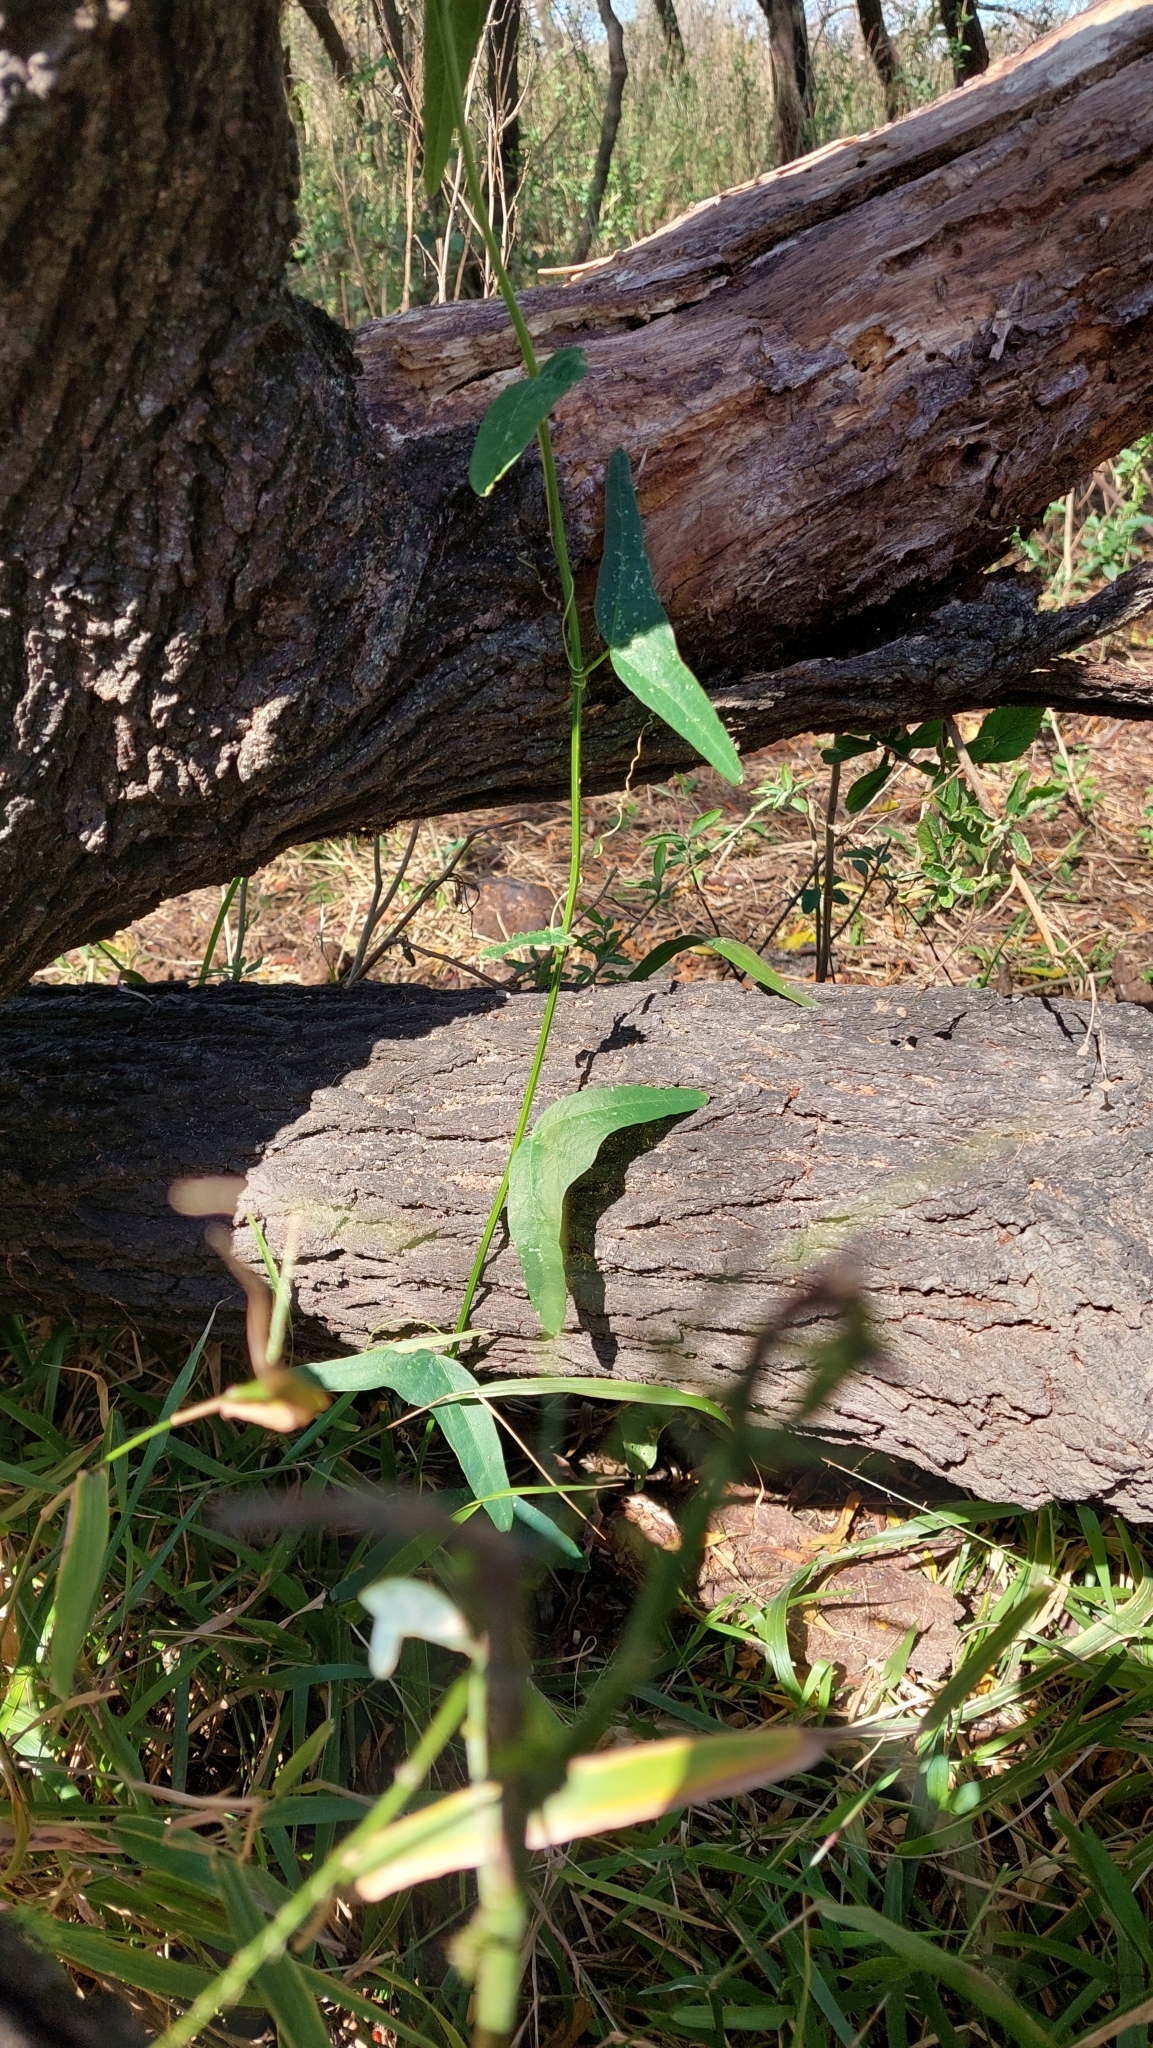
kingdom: Plantae
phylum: Tracheophyta
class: Magnoliopsida
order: Malpighiales
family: Passifloraceae
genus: Passiflora
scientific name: Passiflora misera
